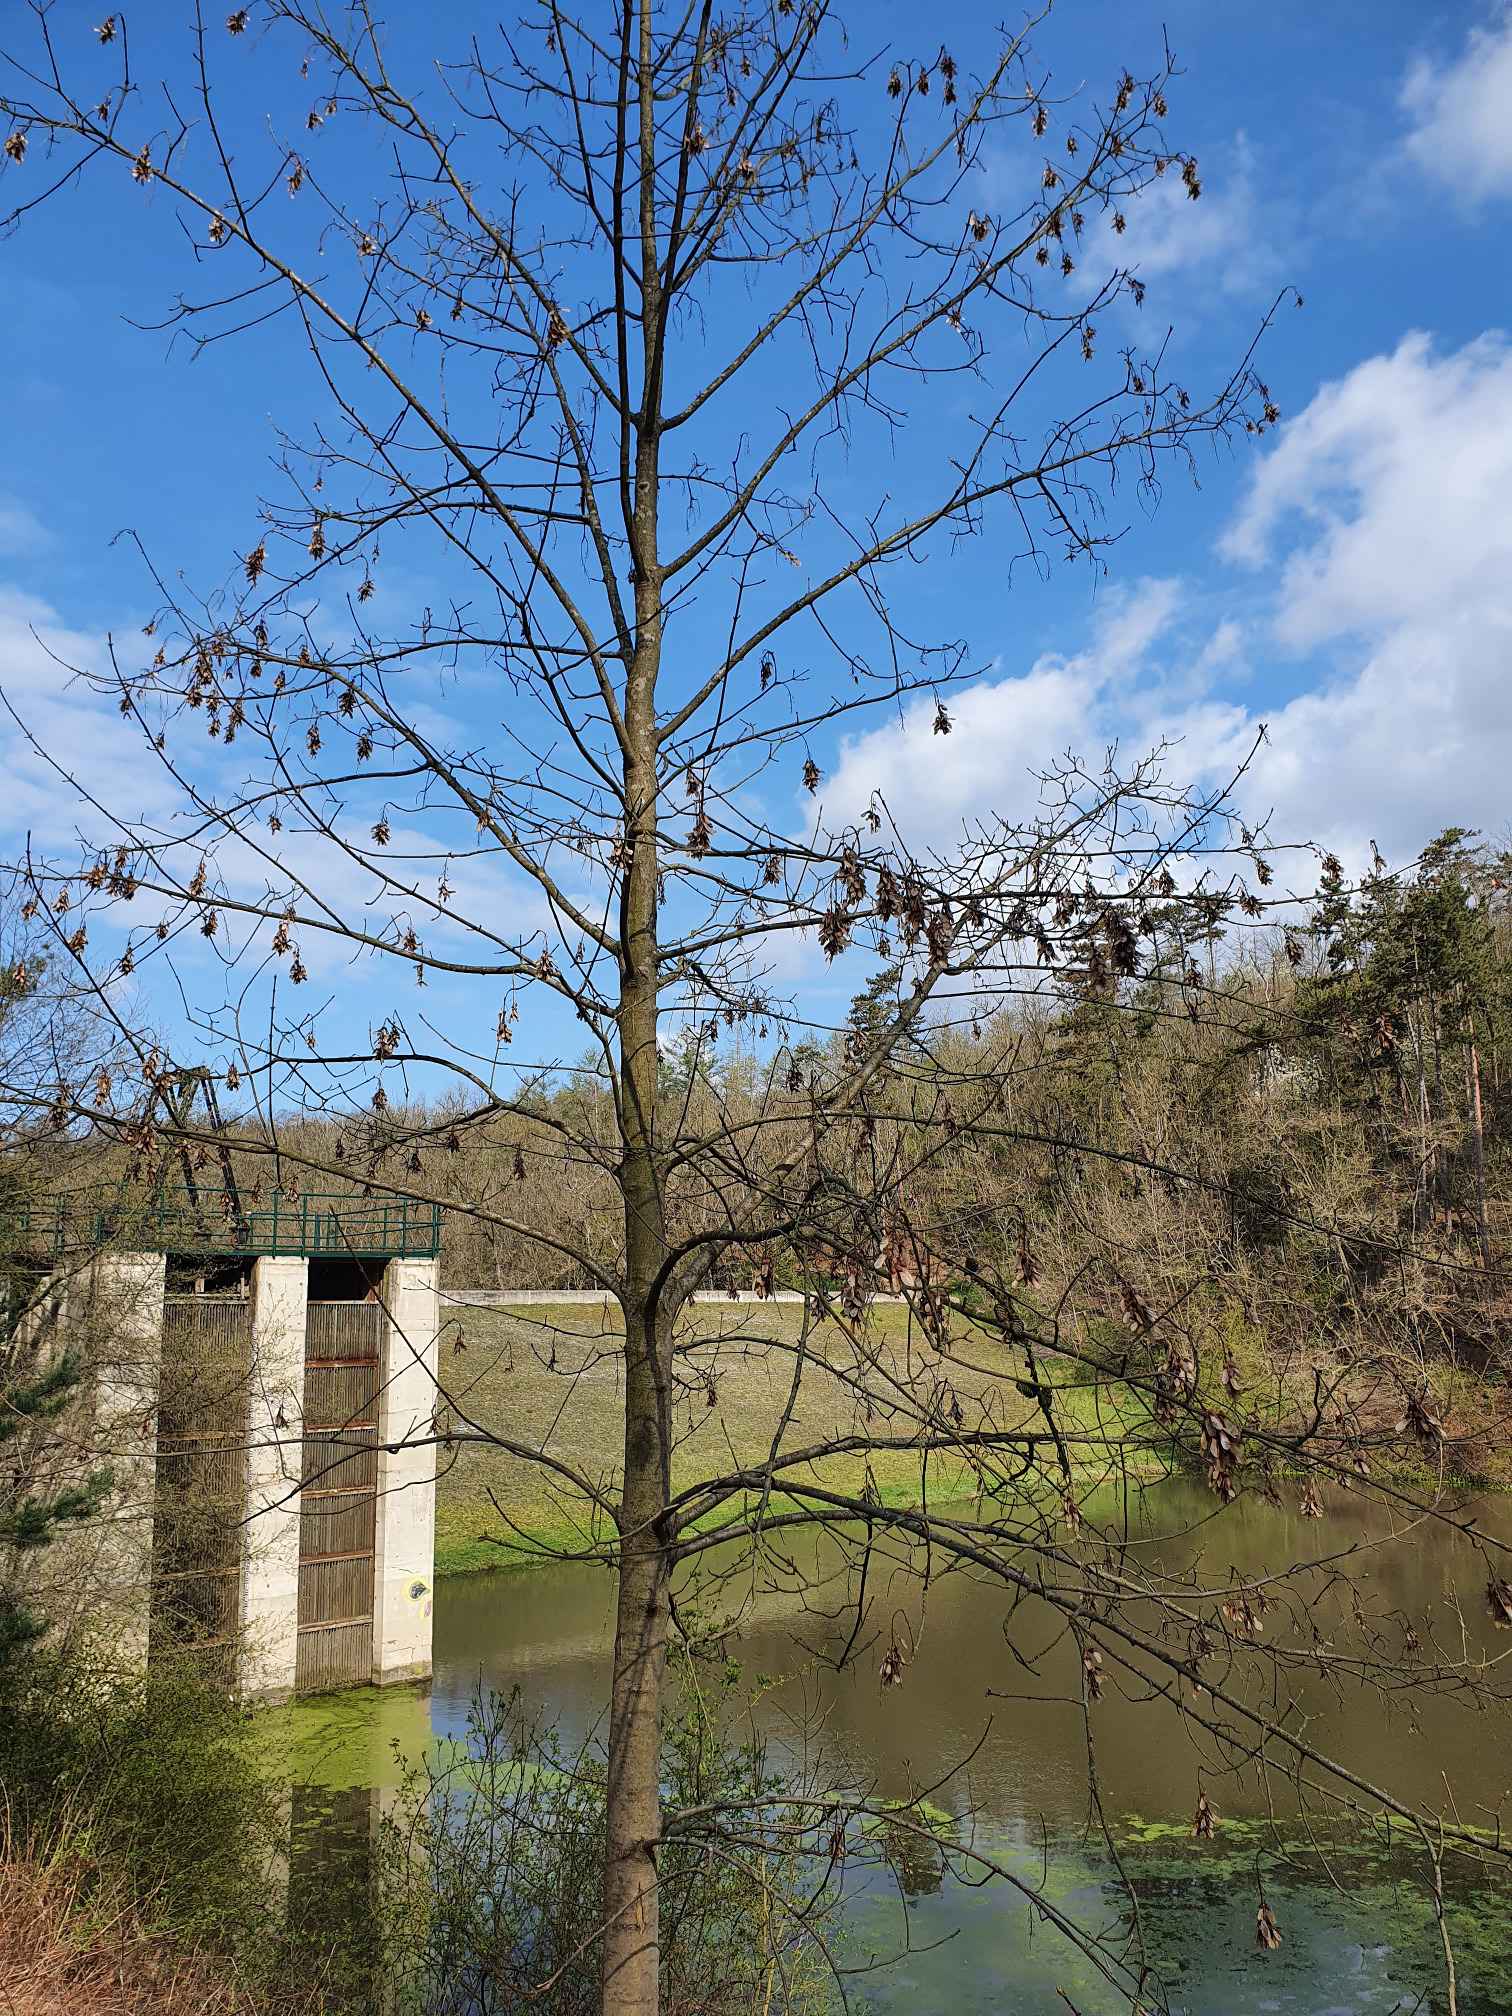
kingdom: Plantae
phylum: Tracheophyta
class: Magnoliopsida
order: Sapindales
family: Sapindaceae
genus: Acer
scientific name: Acer pseudoplatanus
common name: Sycamore
